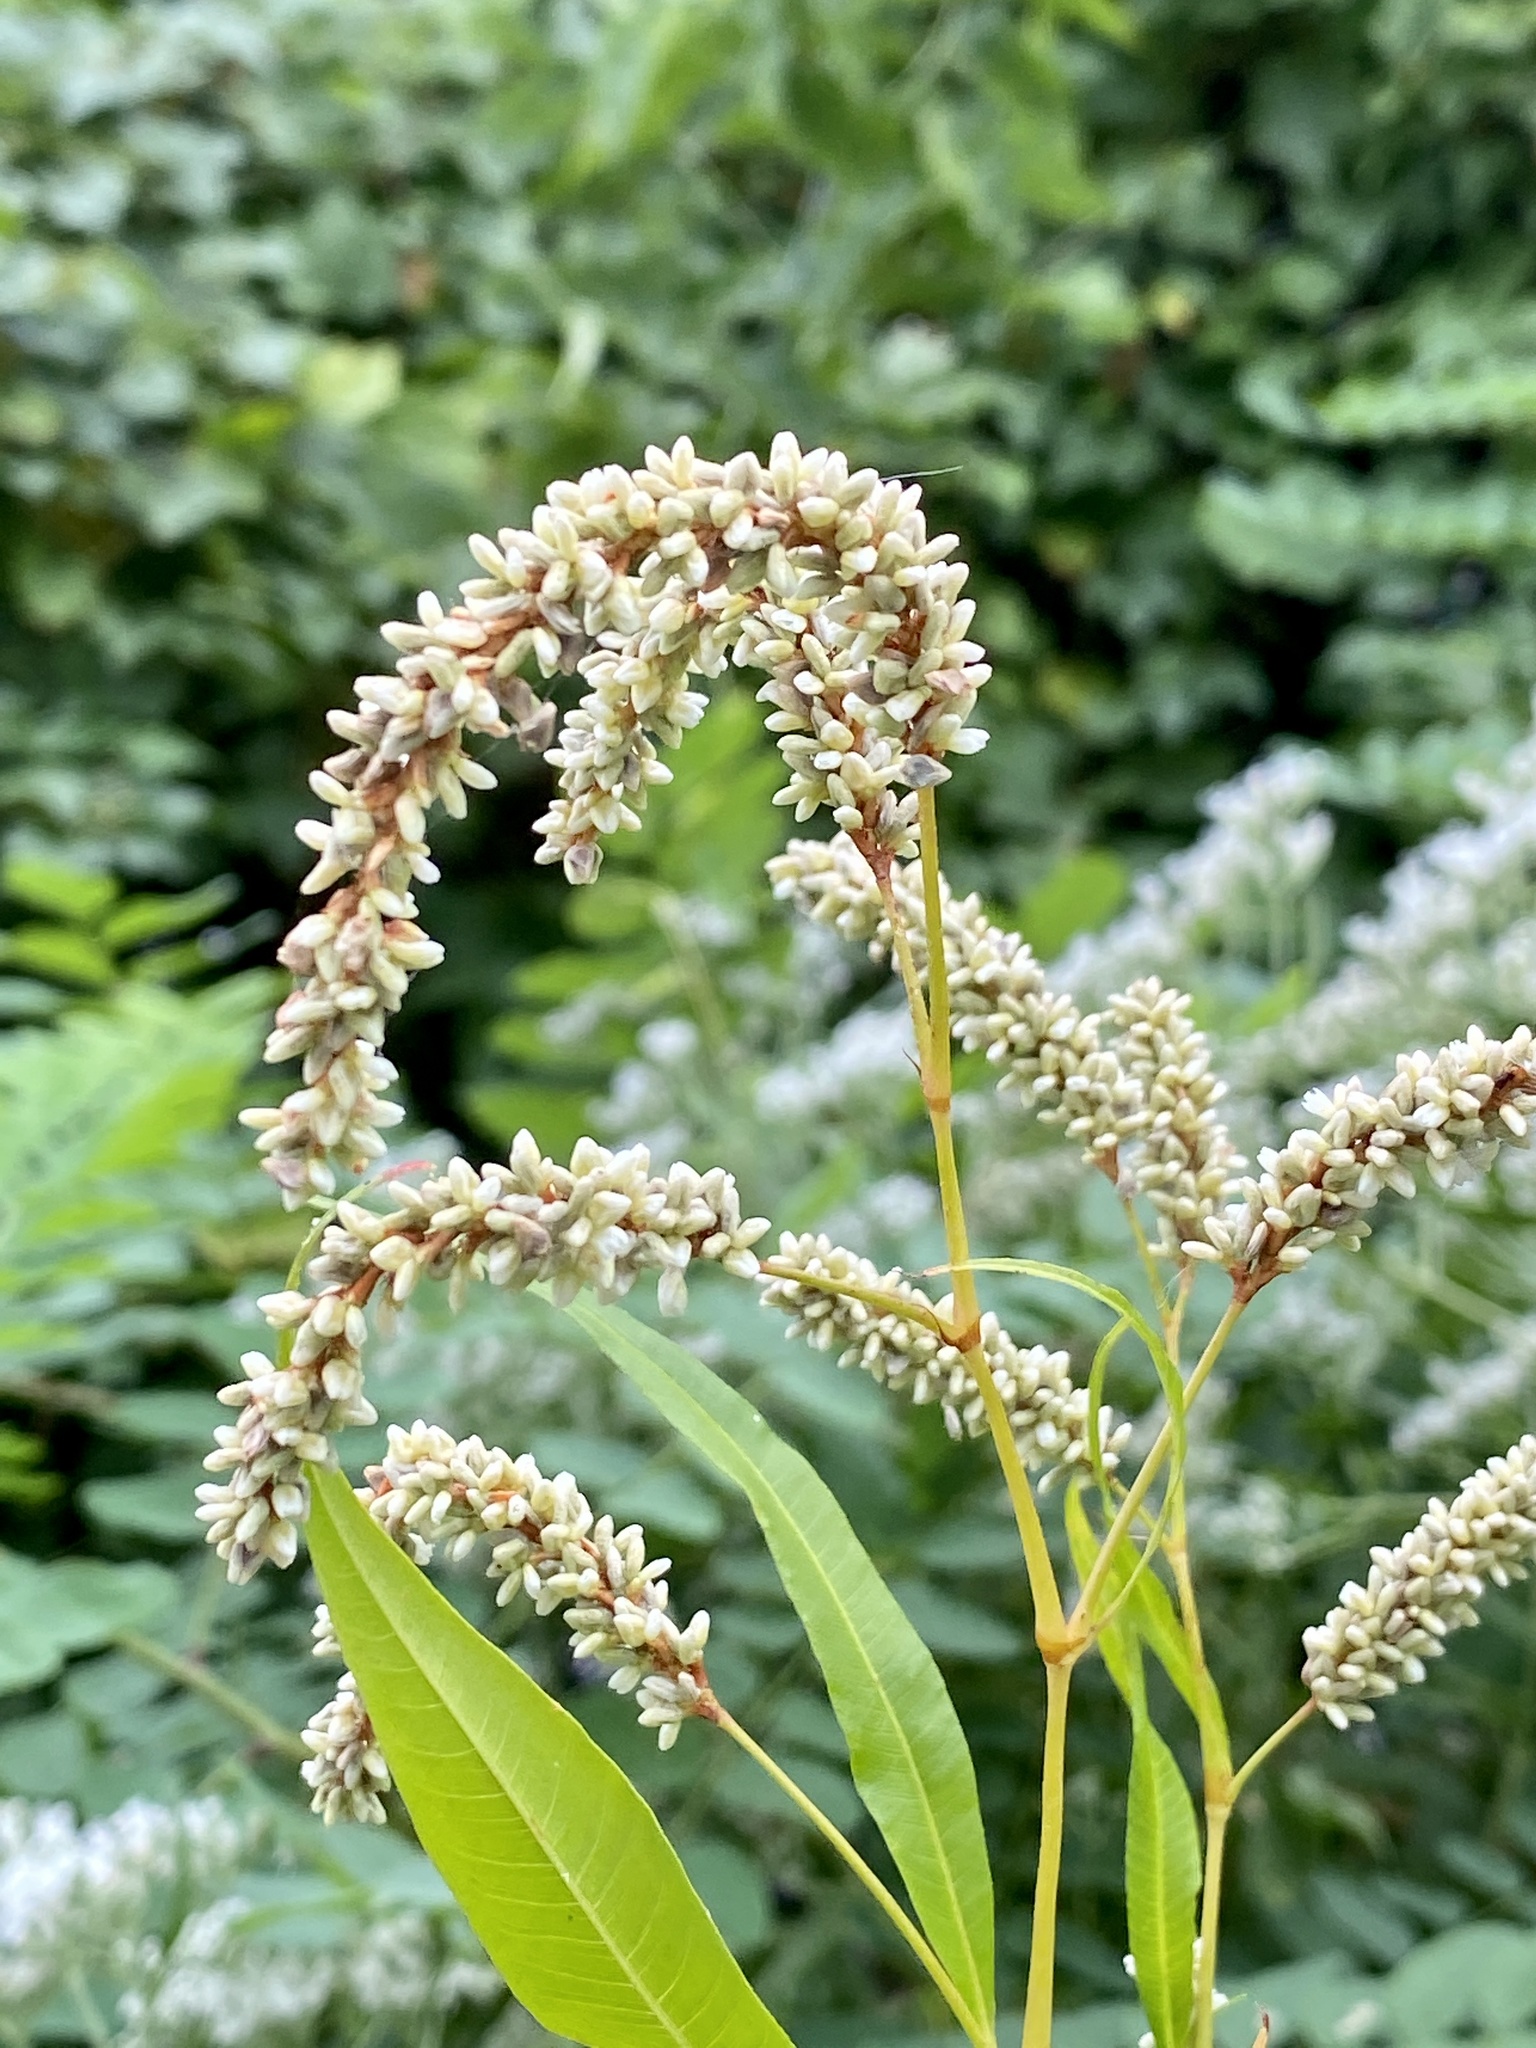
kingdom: Plantae
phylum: Tracheophyta
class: Magnoliopsida
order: Caryophyllales
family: Polygonaceae
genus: Persicaria
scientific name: Persicaria lapathifolia
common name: Curlytop knotweed
